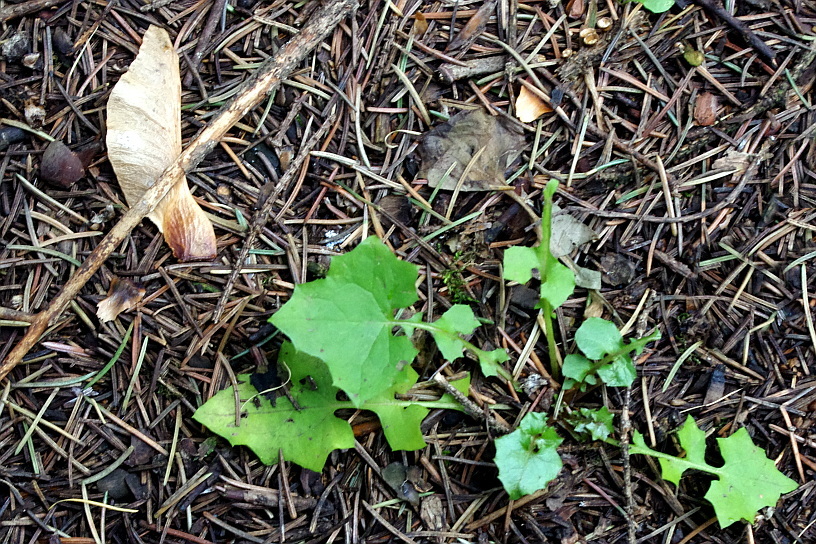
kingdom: Plantae
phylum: Tracheophyta
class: Magnoliopsida
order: Asterales
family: Asteraceae
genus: Mycelis
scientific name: Mycelis muralis
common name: Wall lettuce
